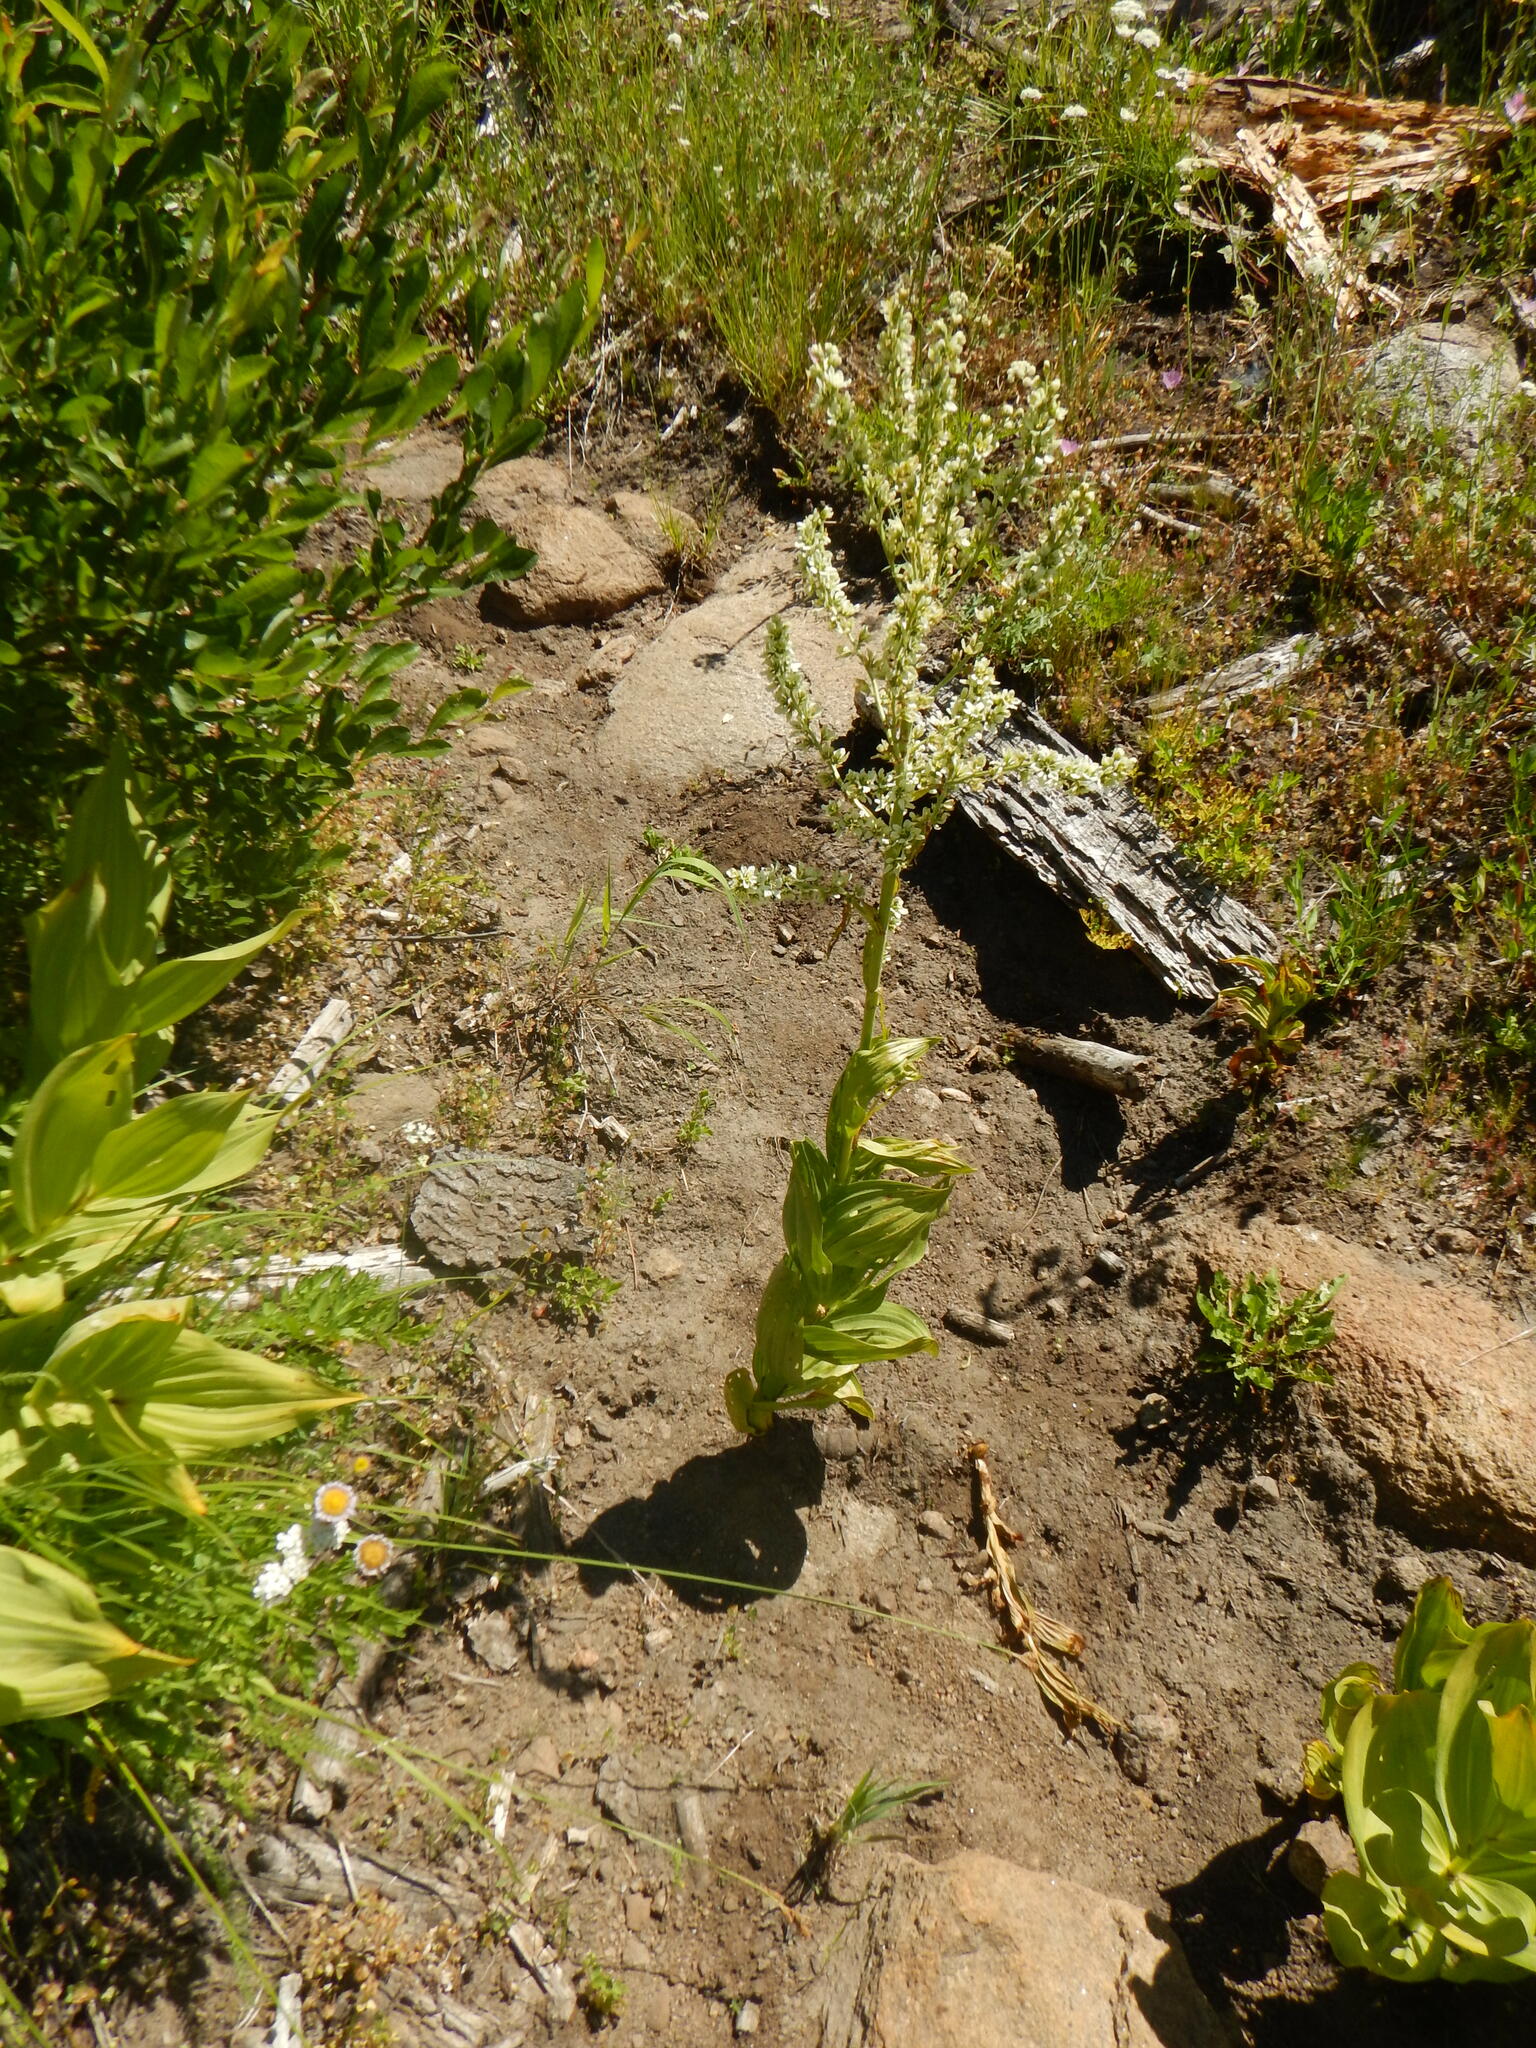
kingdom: Plantae
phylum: Tracheophyta
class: Liliopsida
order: Liliales
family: Melanthiaceae
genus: Veratrum
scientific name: Veratrum californicum
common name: California veratrum
